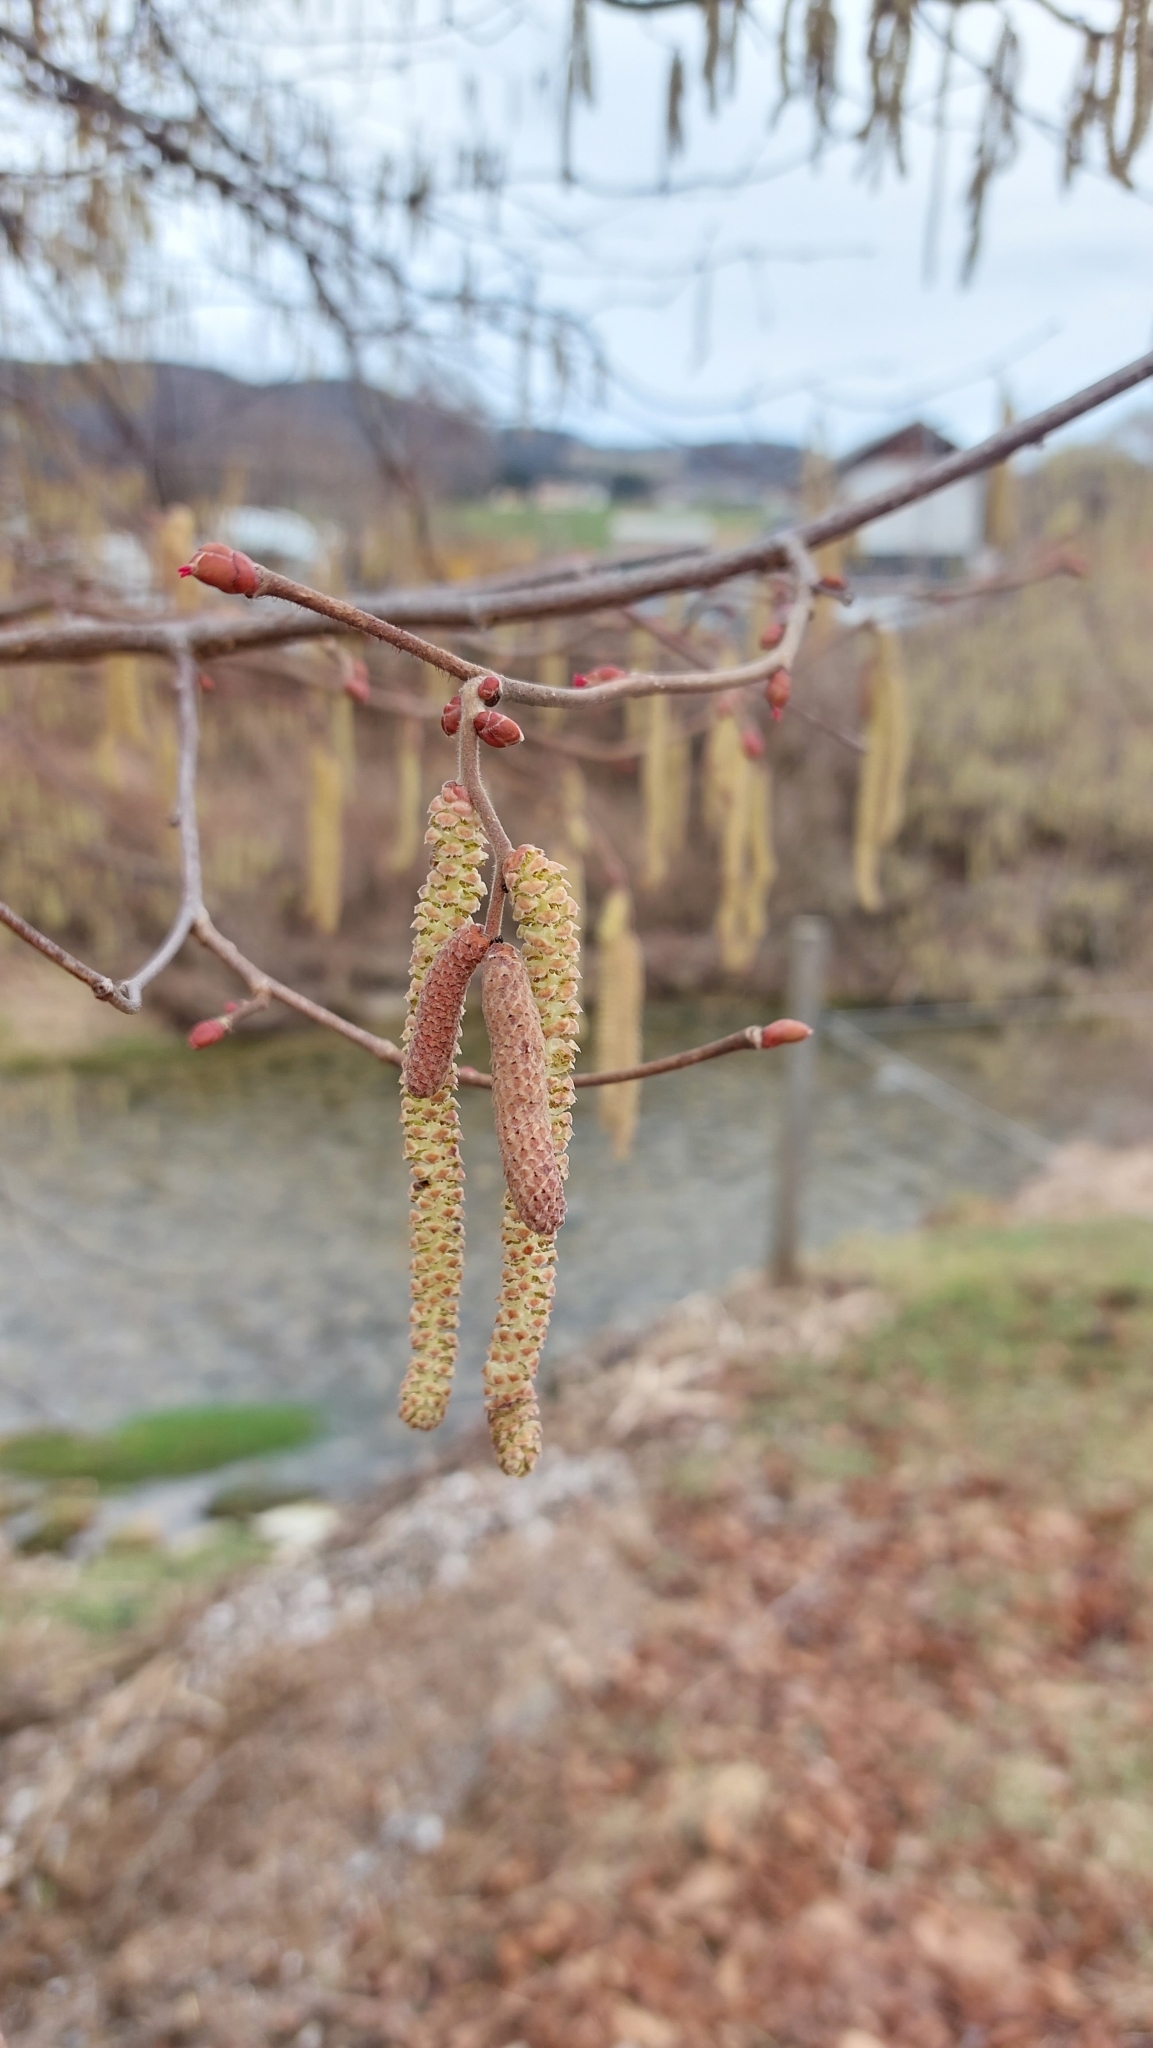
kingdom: Plantae
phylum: Tracheophyta
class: Magnoliopsida
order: Fagales
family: Betulaceae
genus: Corylus
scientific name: Corylus avellana
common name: European hazel
